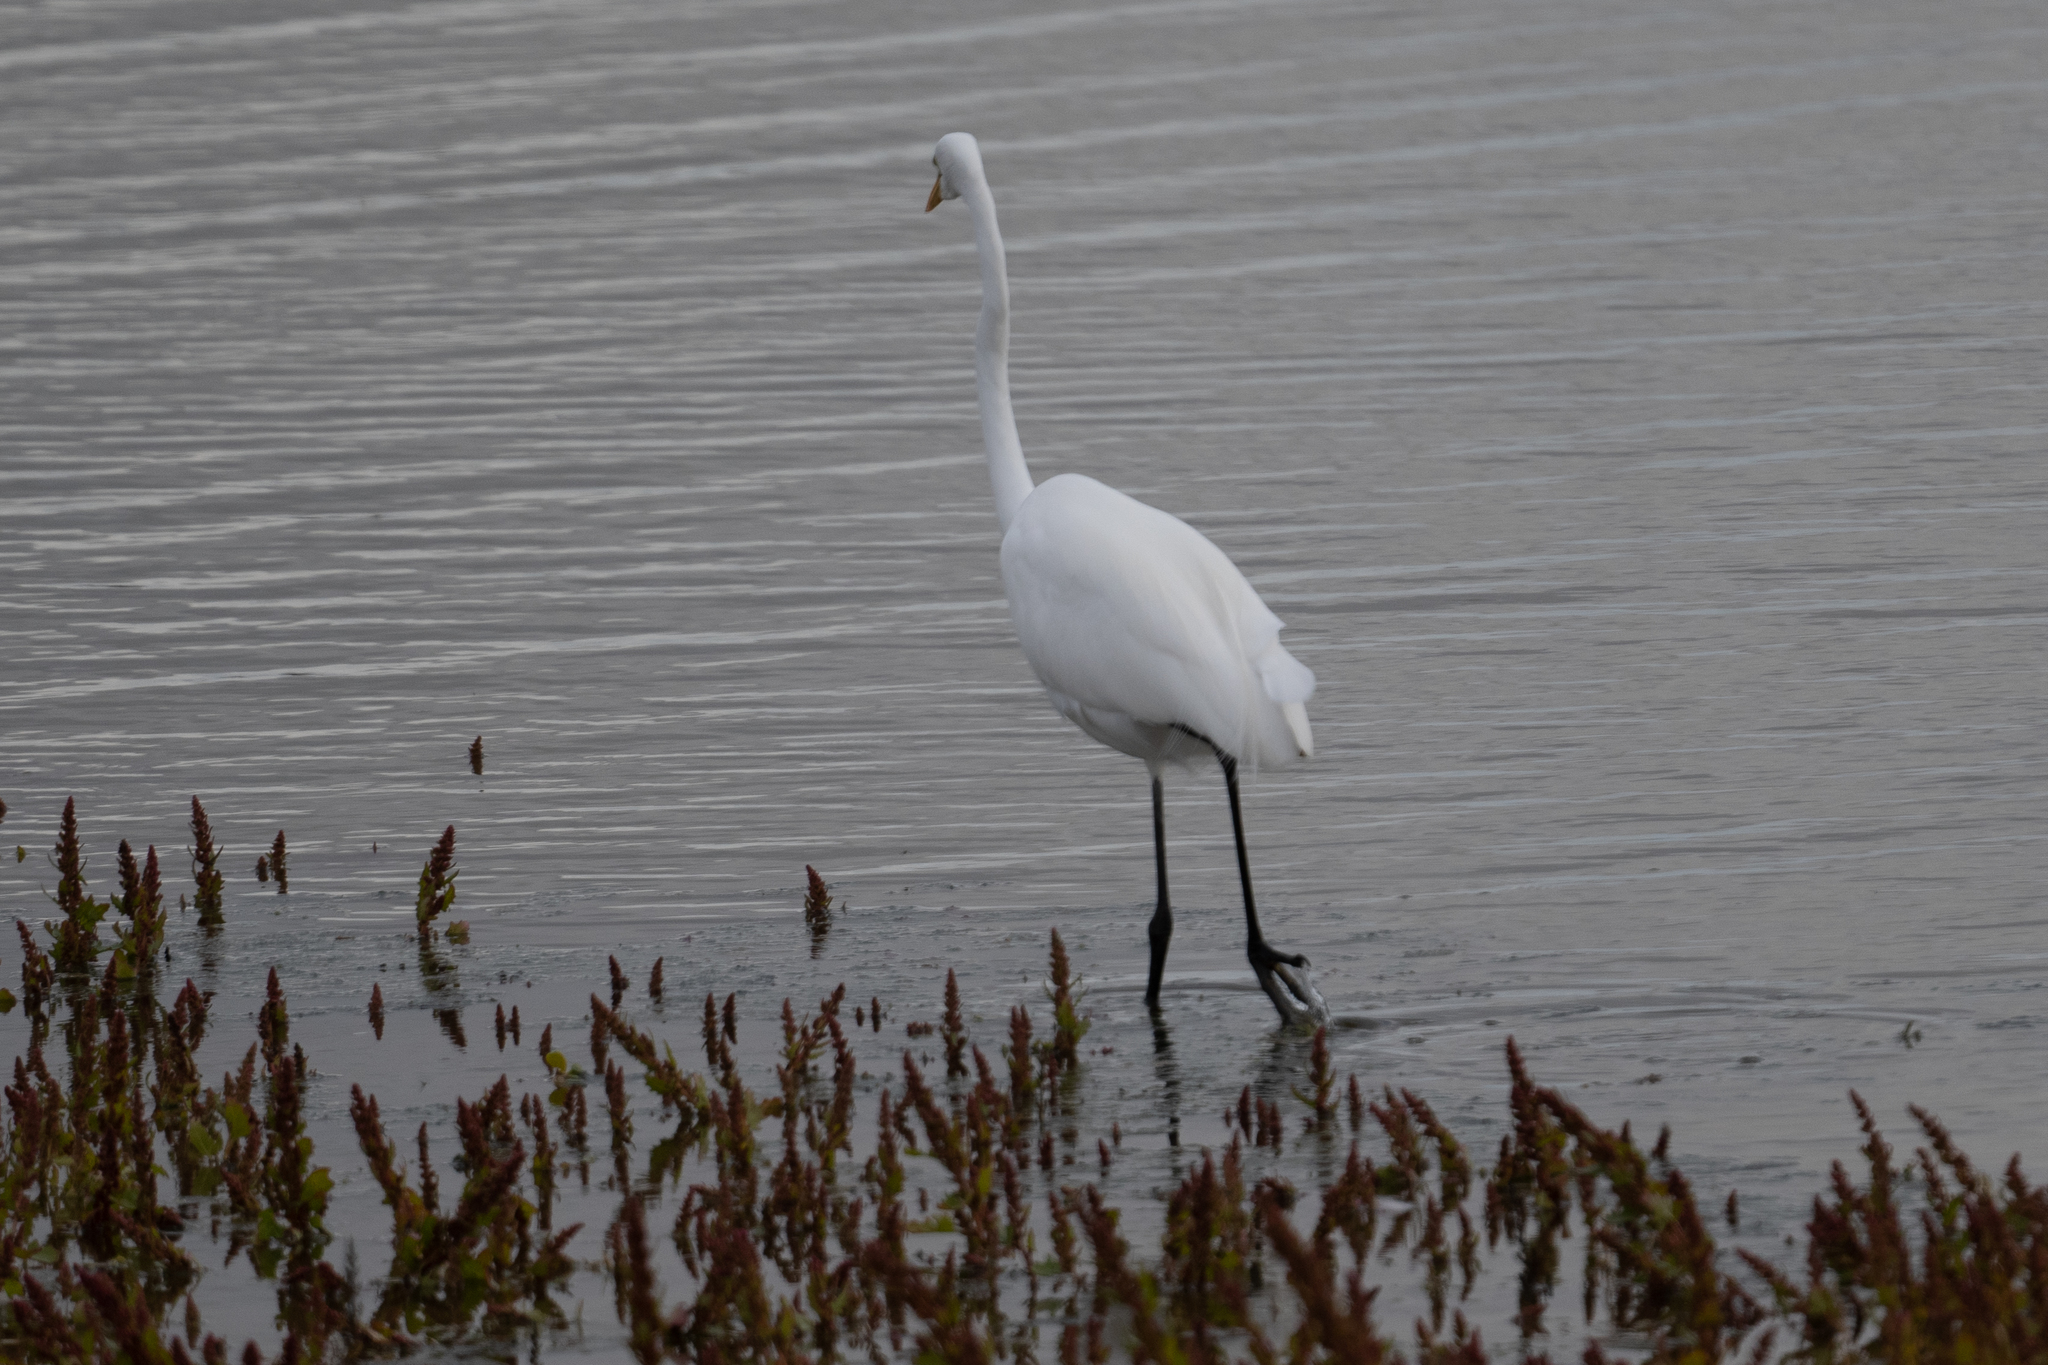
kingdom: Animalia
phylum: Chordata
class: Aves
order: Pelecaniformes
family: Ardeidae
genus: Ardea
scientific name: Ardea alba
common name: Great egret
